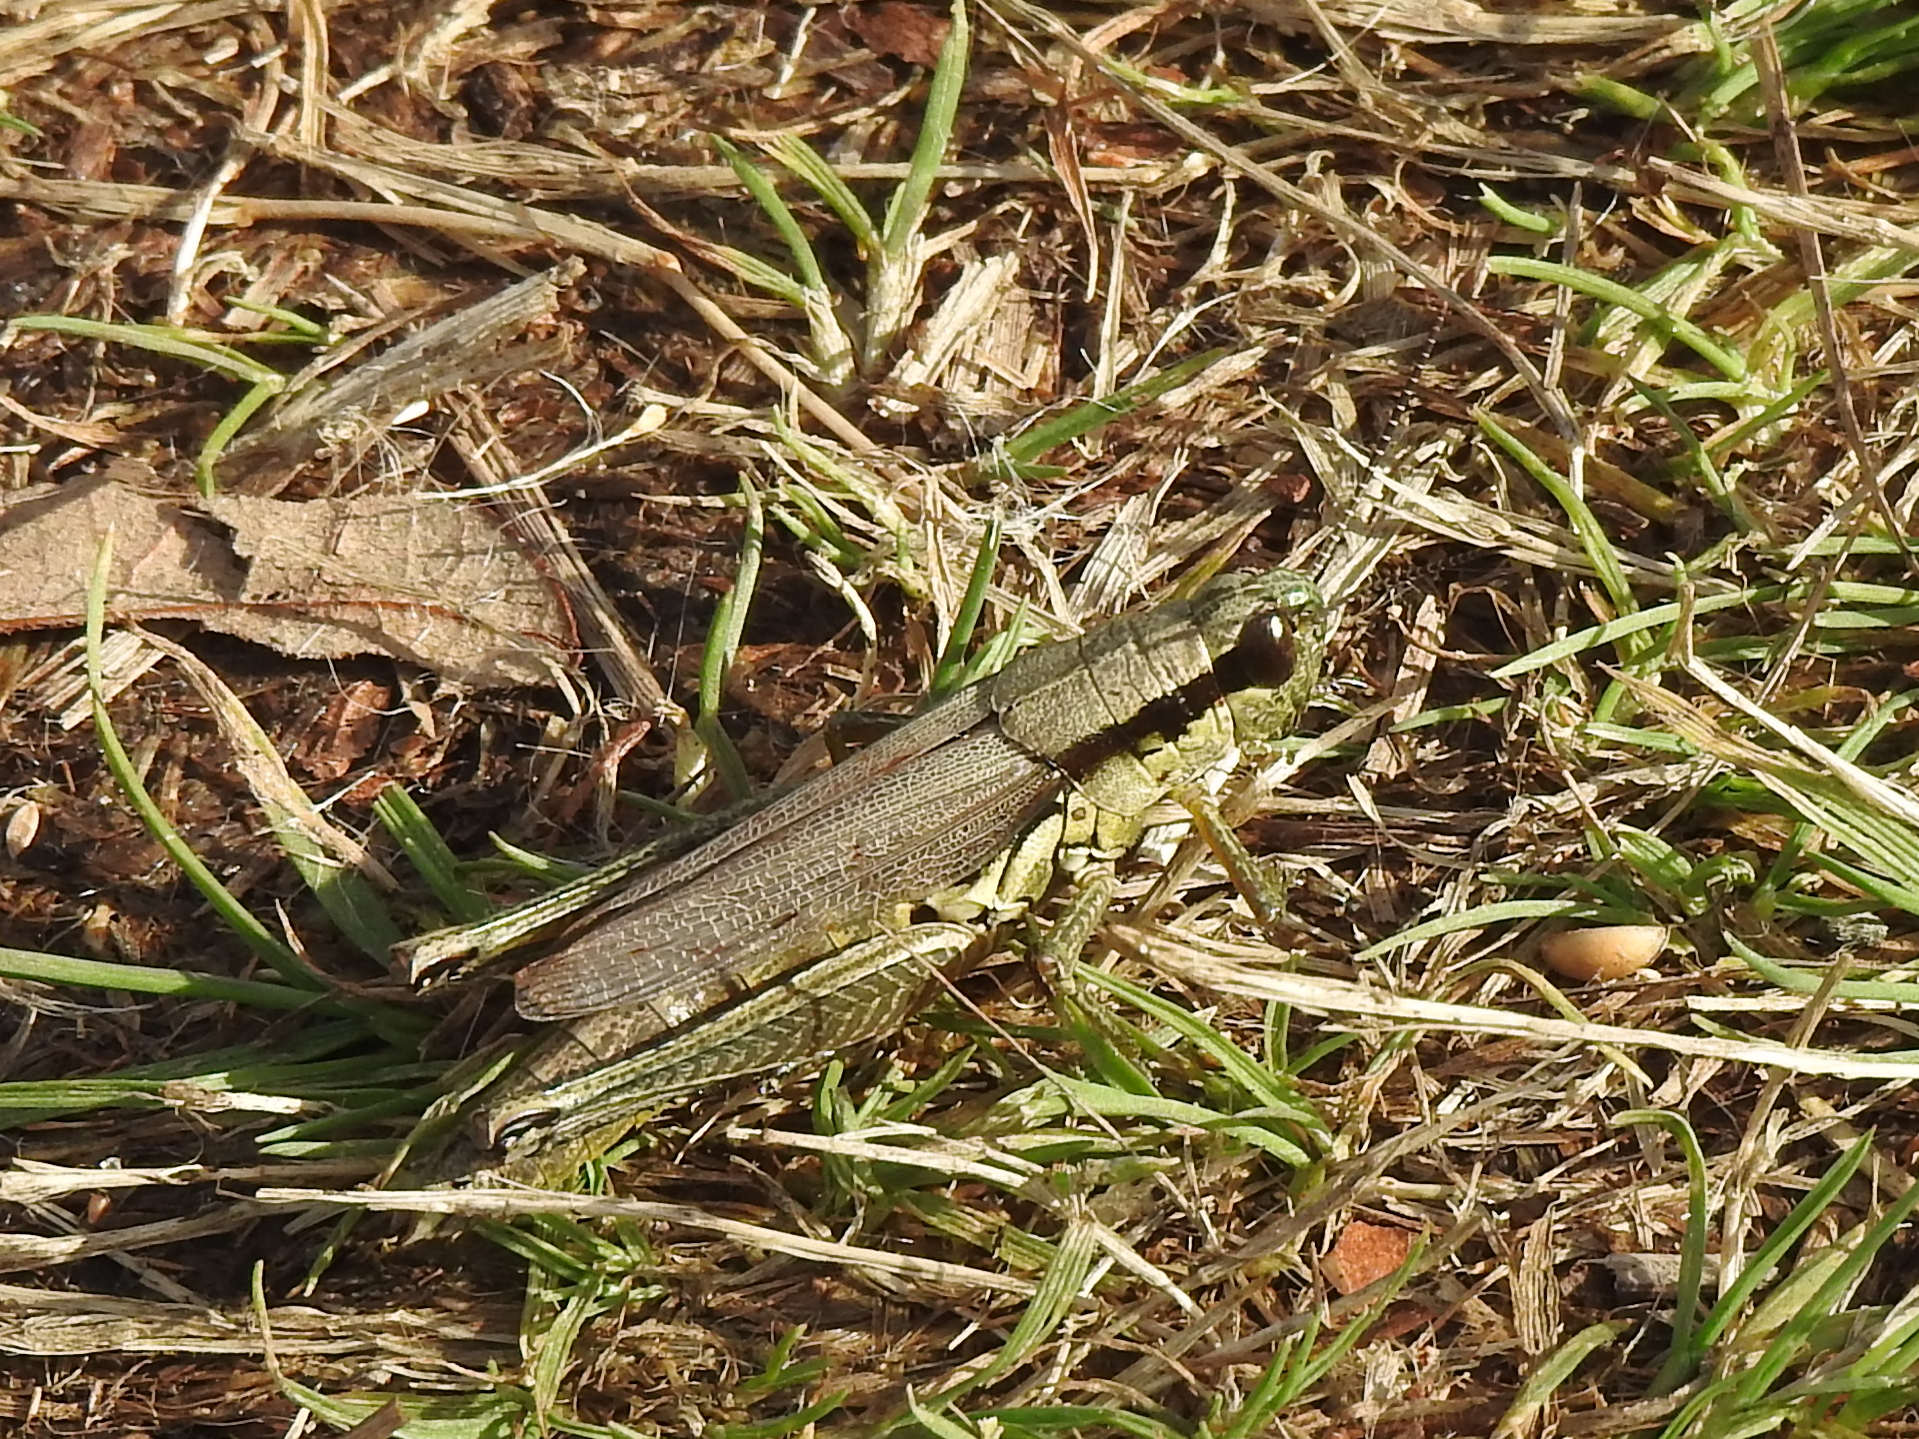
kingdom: Animalia
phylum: Arthropoda
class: Insecta
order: Orthoptera
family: Acrididae
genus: Paroxya
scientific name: Paroxya clavuligera
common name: Olive-green swamp grasshopper
